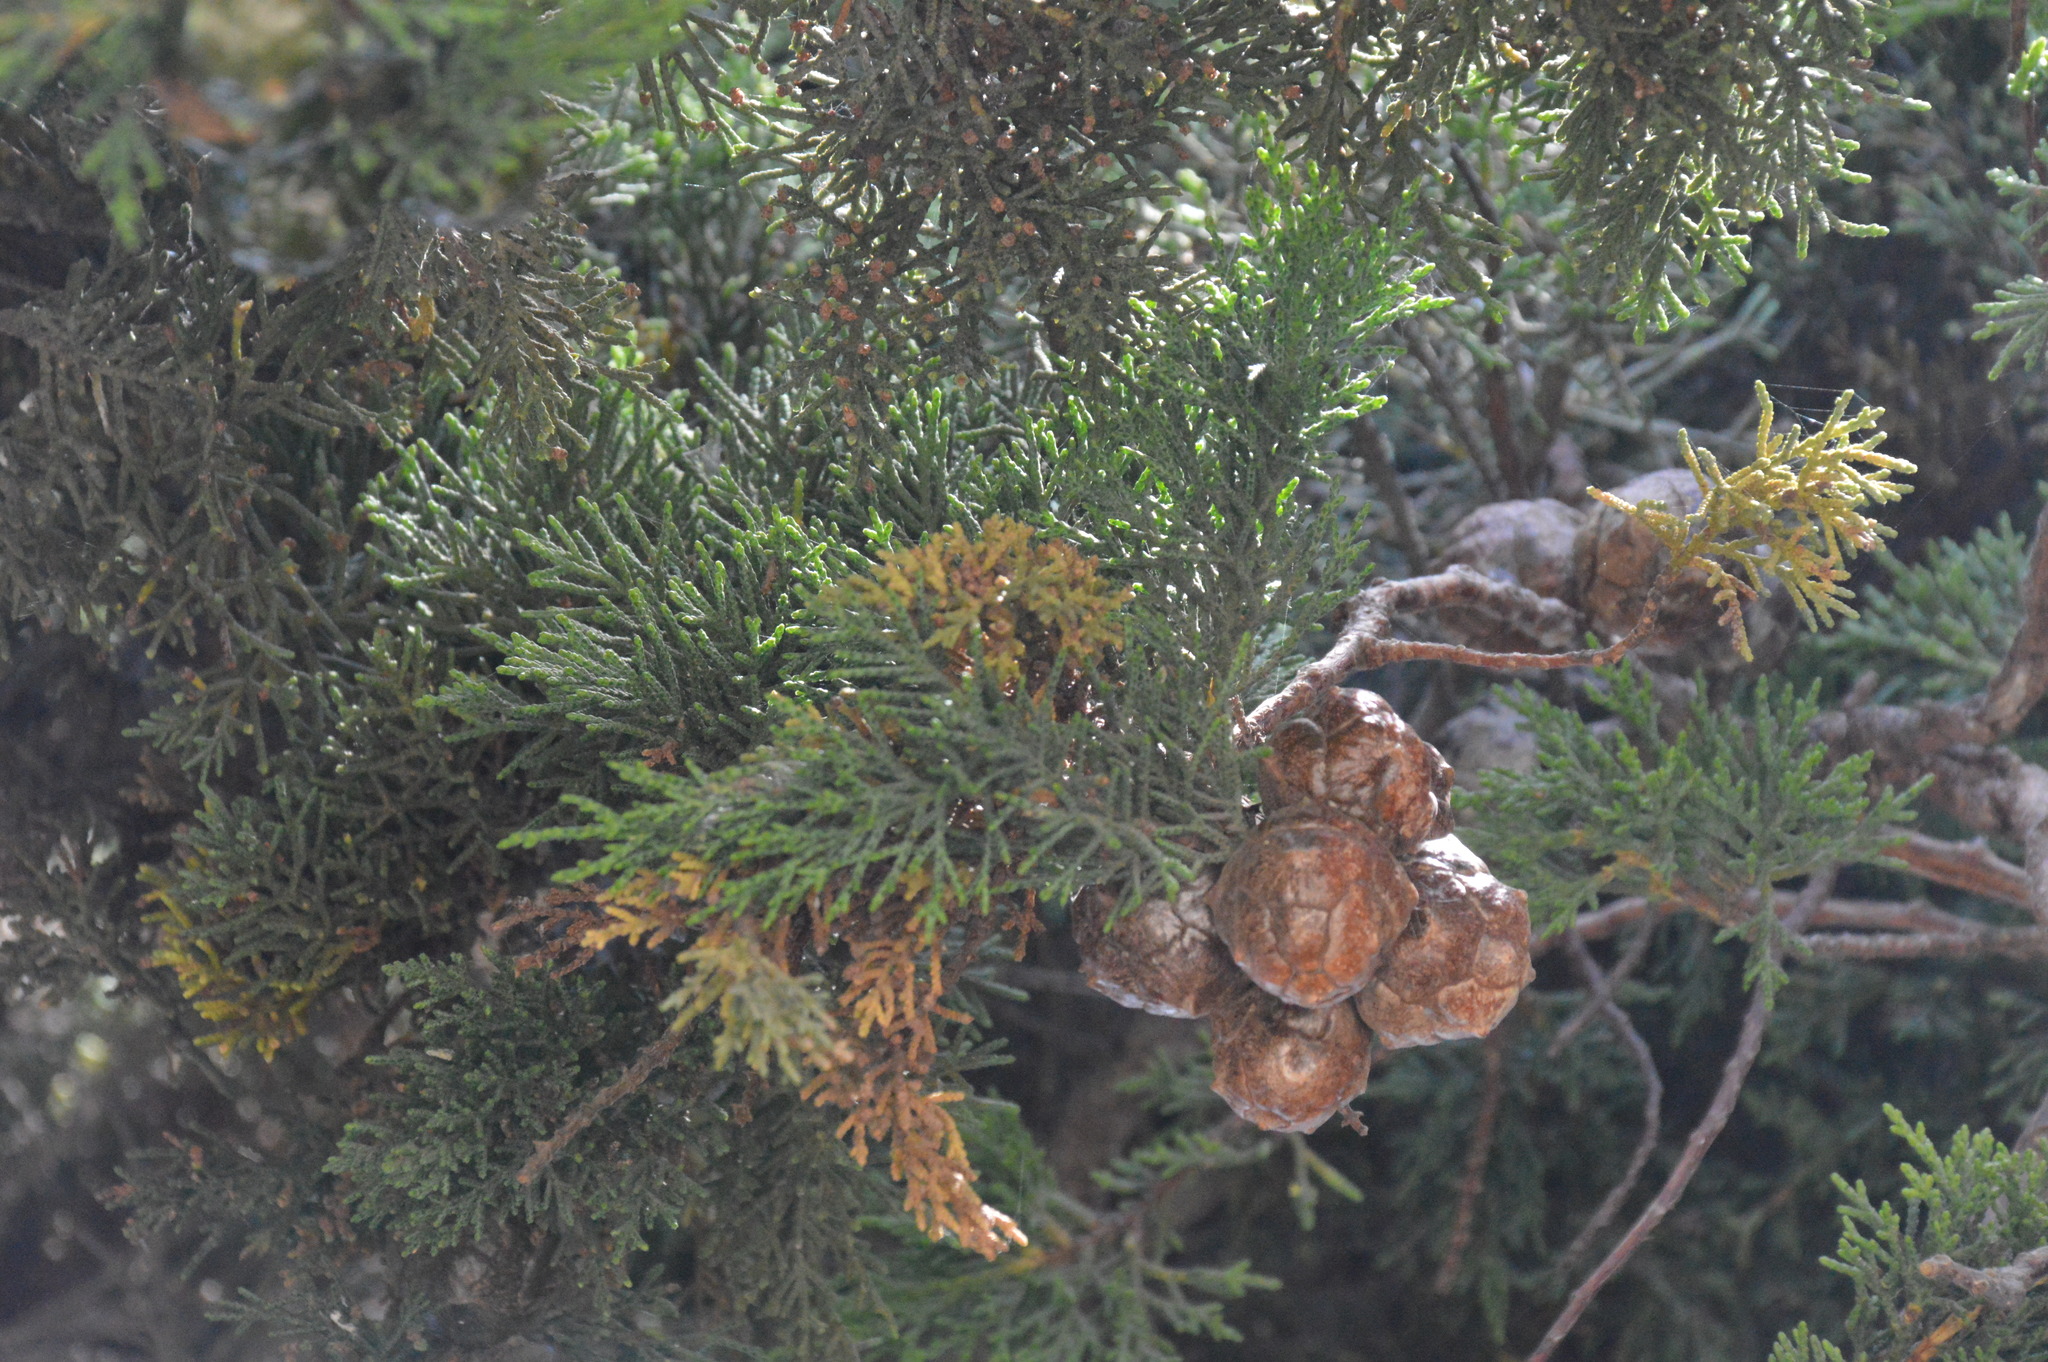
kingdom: Plantae
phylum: Tracheophyta
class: Pinopsida
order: Pinales
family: Cupressaceae
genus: Cupressus
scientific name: Cupressus macrocarpa
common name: Monterey cypress
